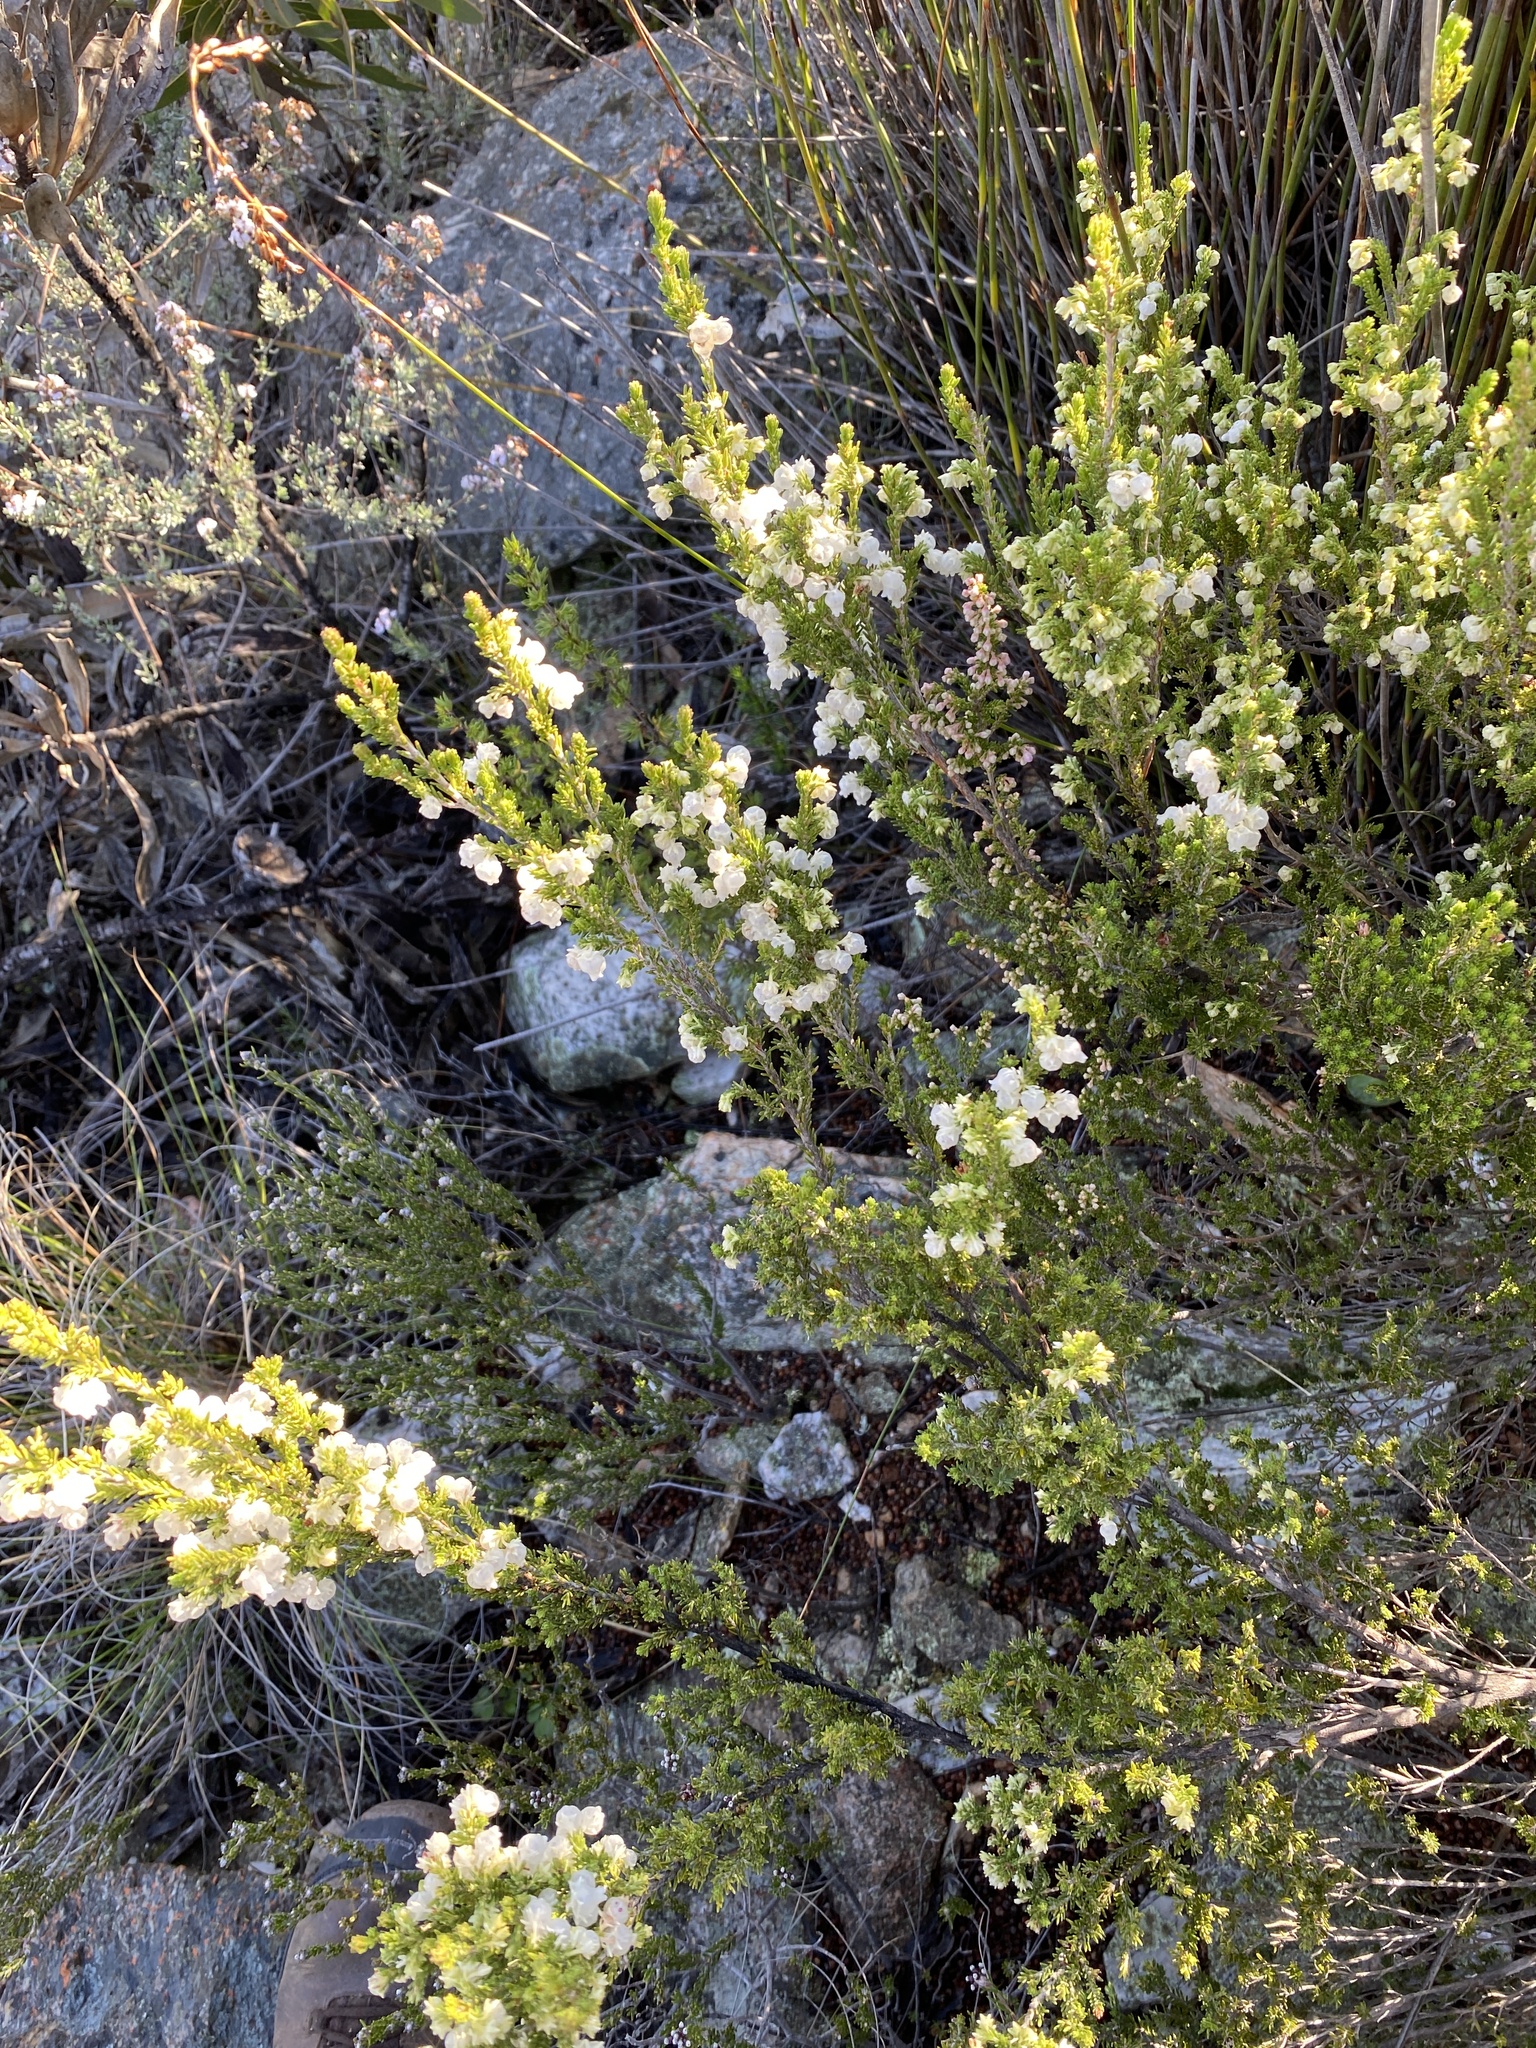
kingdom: Plantae
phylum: Tracheophyta
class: Magnoliopsida
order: Ericales
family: Ericaceae
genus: Erica
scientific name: Erica glomiflora
